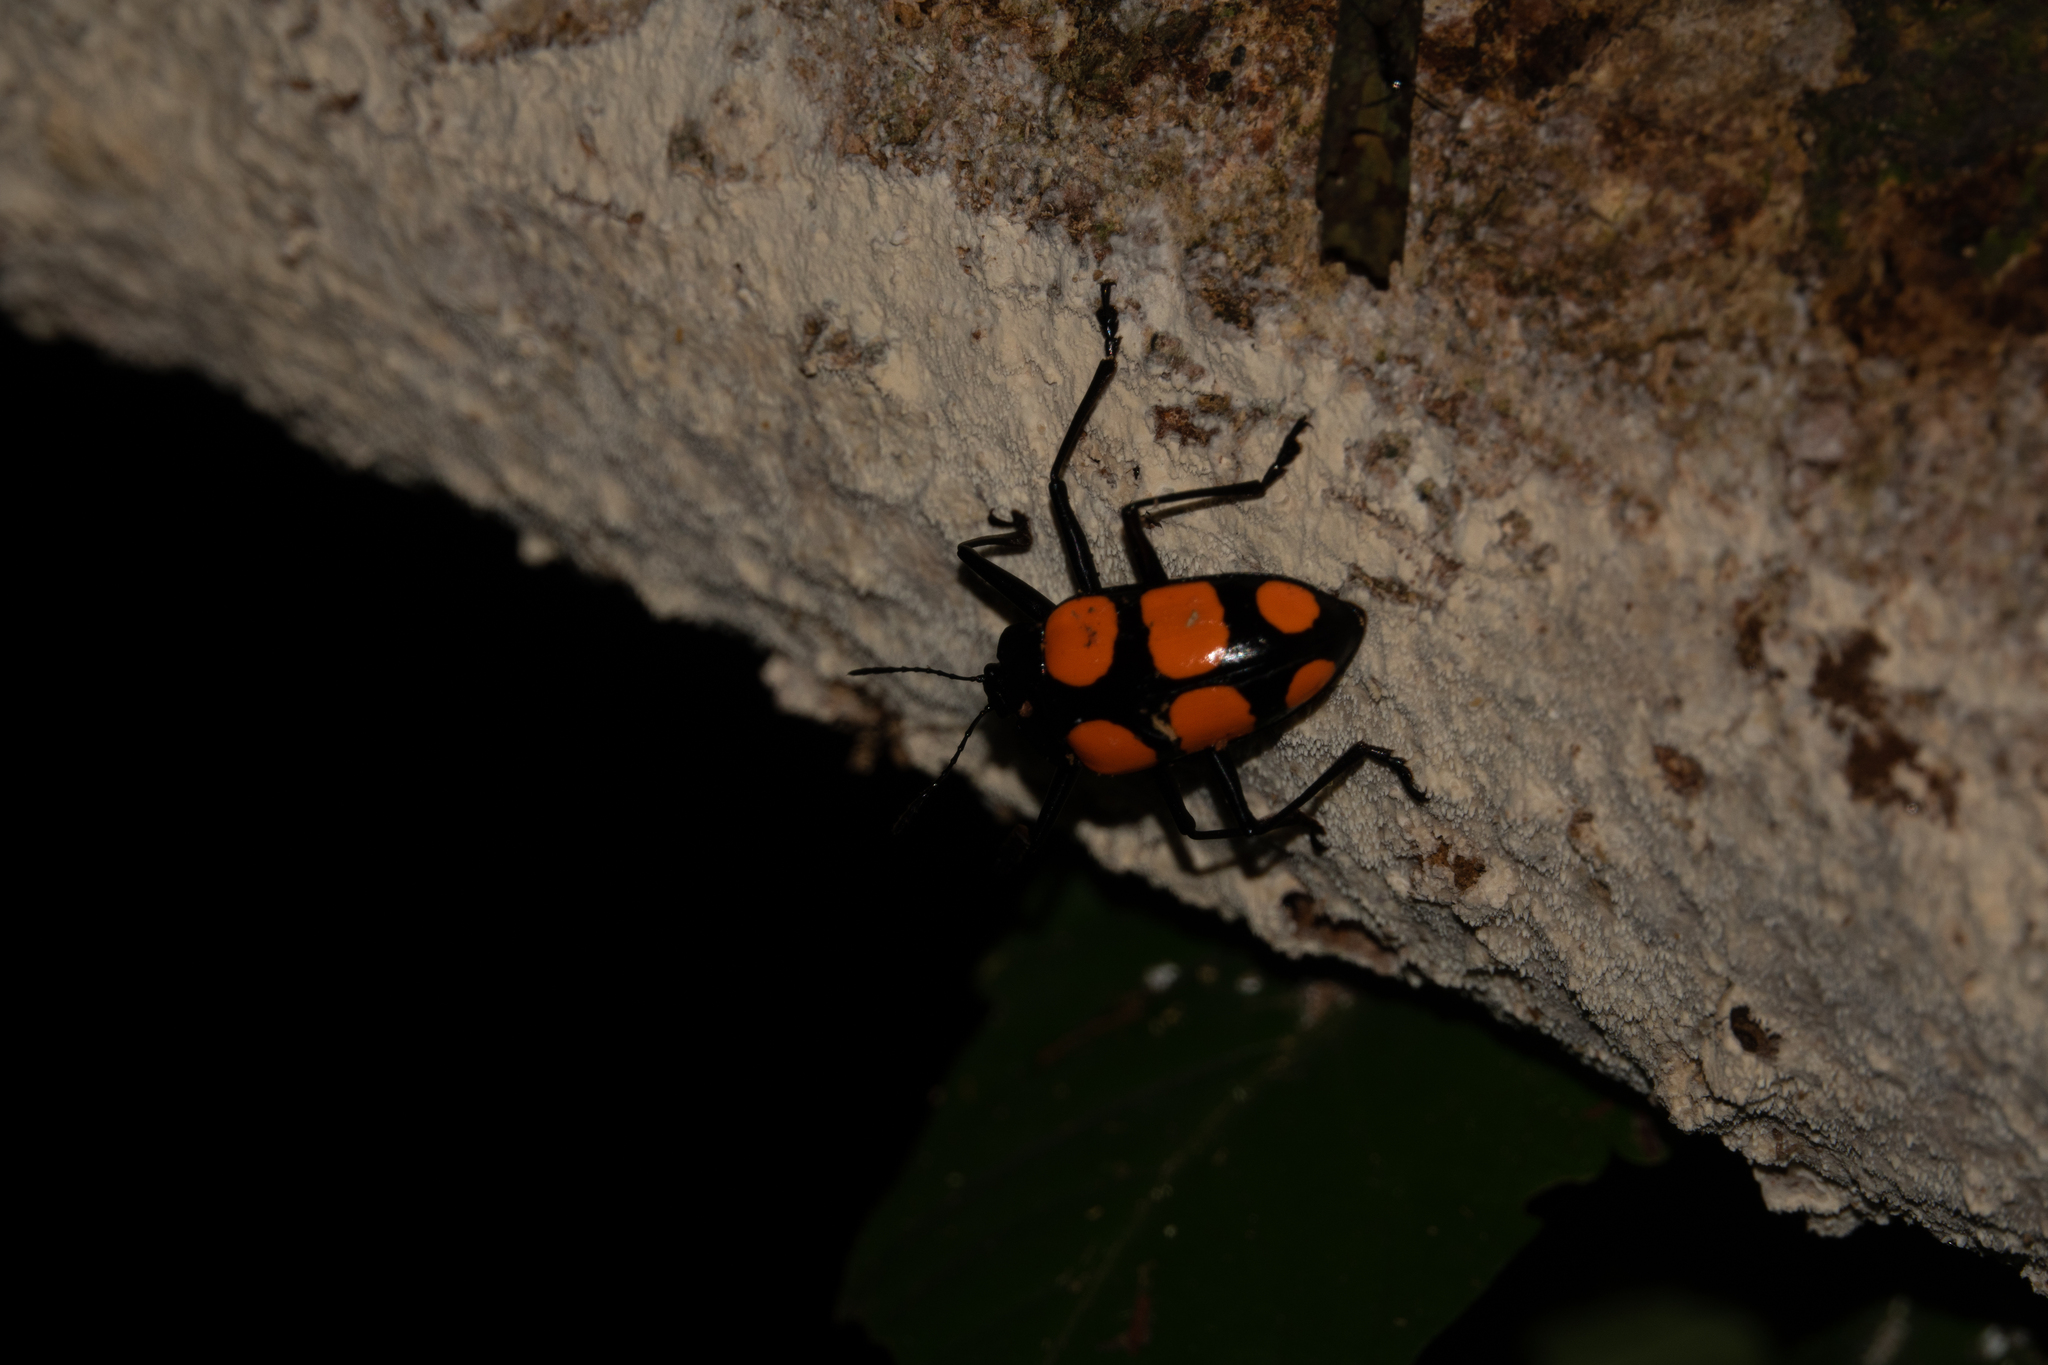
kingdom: Animalia
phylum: Arthropoda
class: Insecta
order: Coleoptera
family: Erotylidae
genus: Scaphidomorphus
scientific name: Scaphidomorphus bosci
